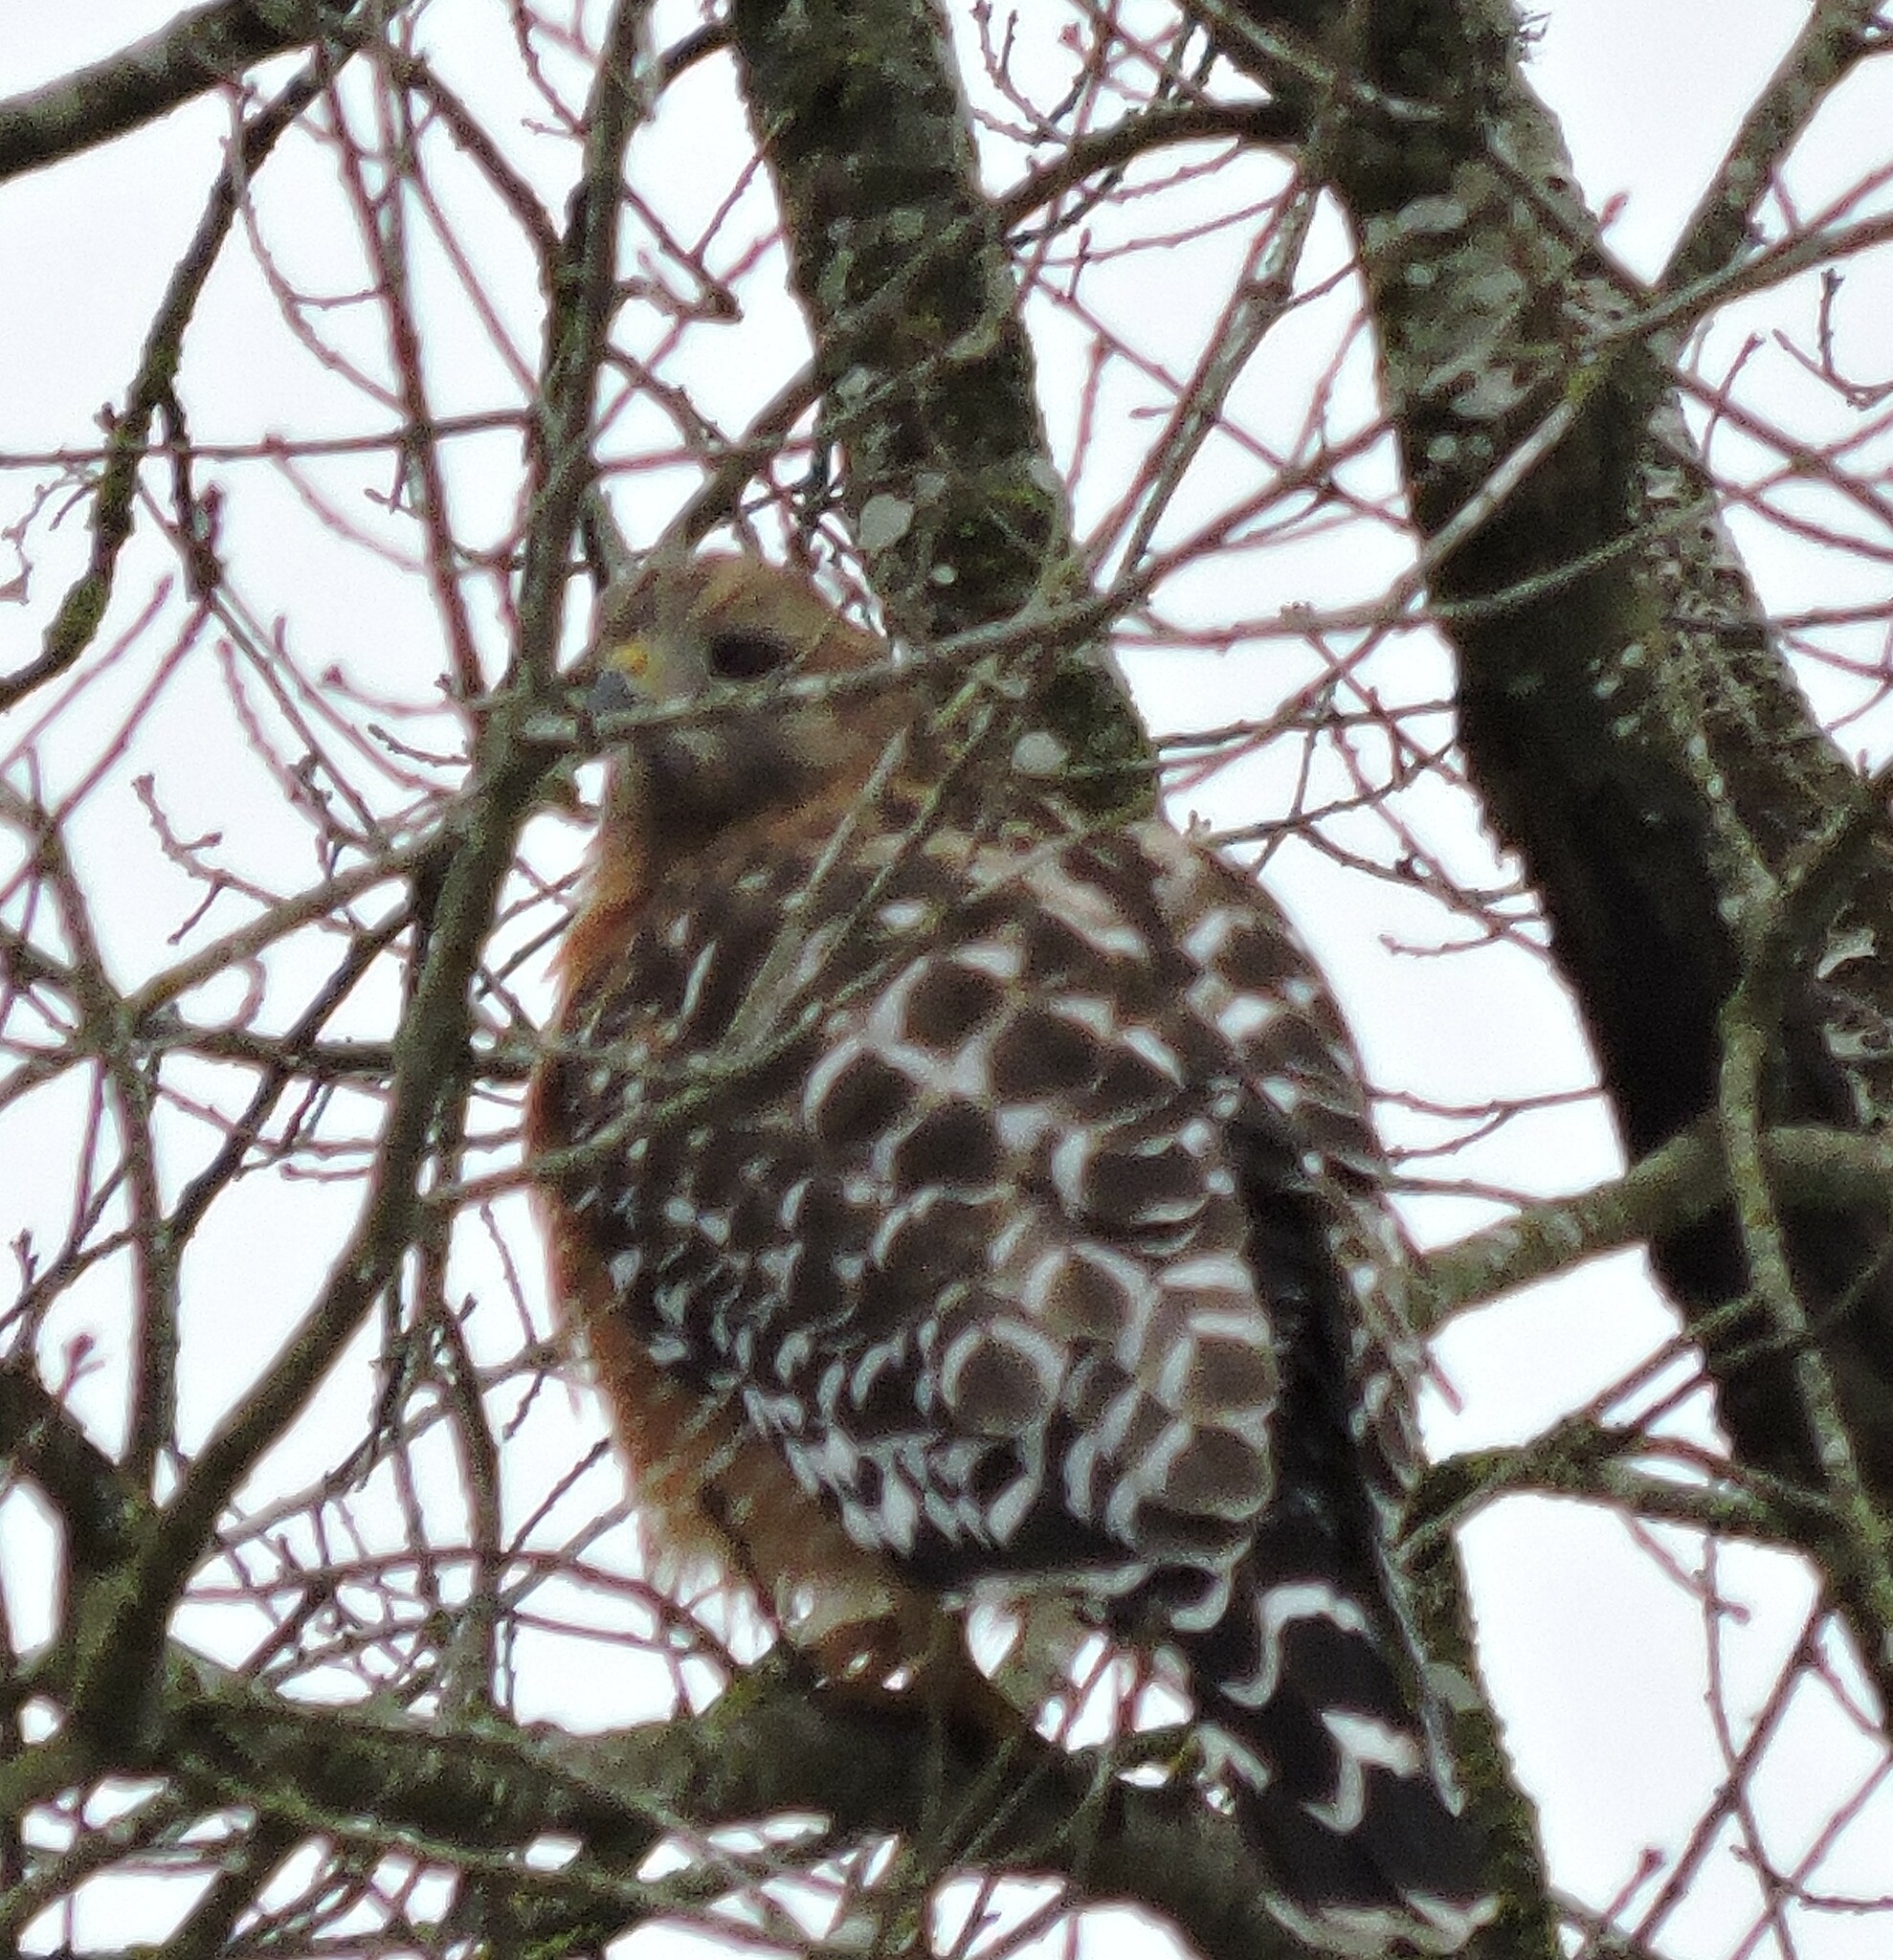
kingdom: Animalia
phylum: Chordata
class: Aves
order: Accipitriformes
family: Accipitridae
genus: Buteo
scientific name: Buteo lineatus
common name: Red-shouldered hawk
